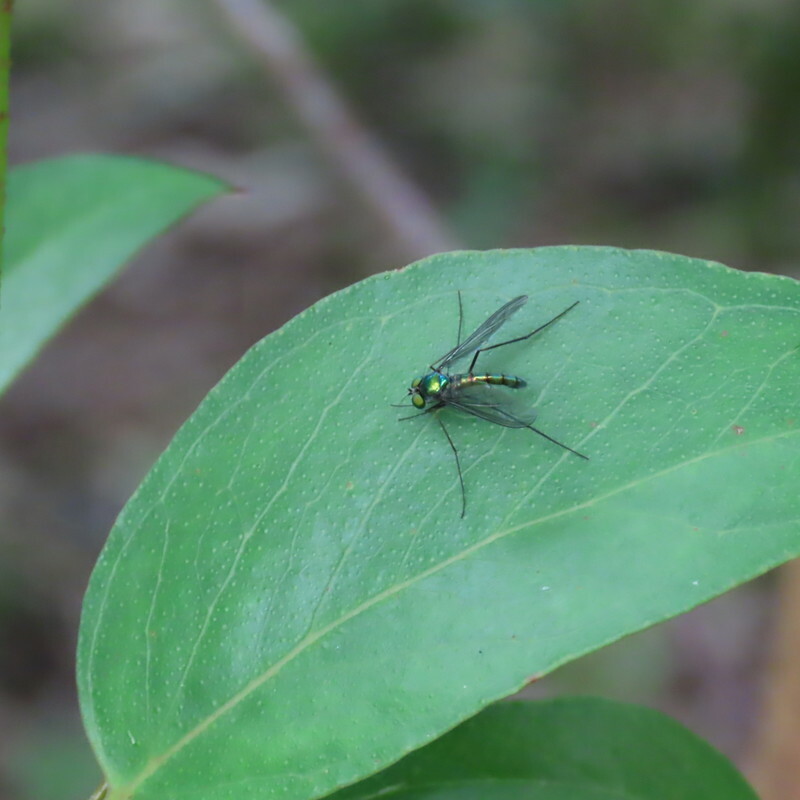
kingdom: Animalia
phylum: Arthropoda
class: Insecta
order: Diptera
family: Dolichopodidae
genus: Heteropsilopus
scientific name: Heteropsilopus cingulipes
